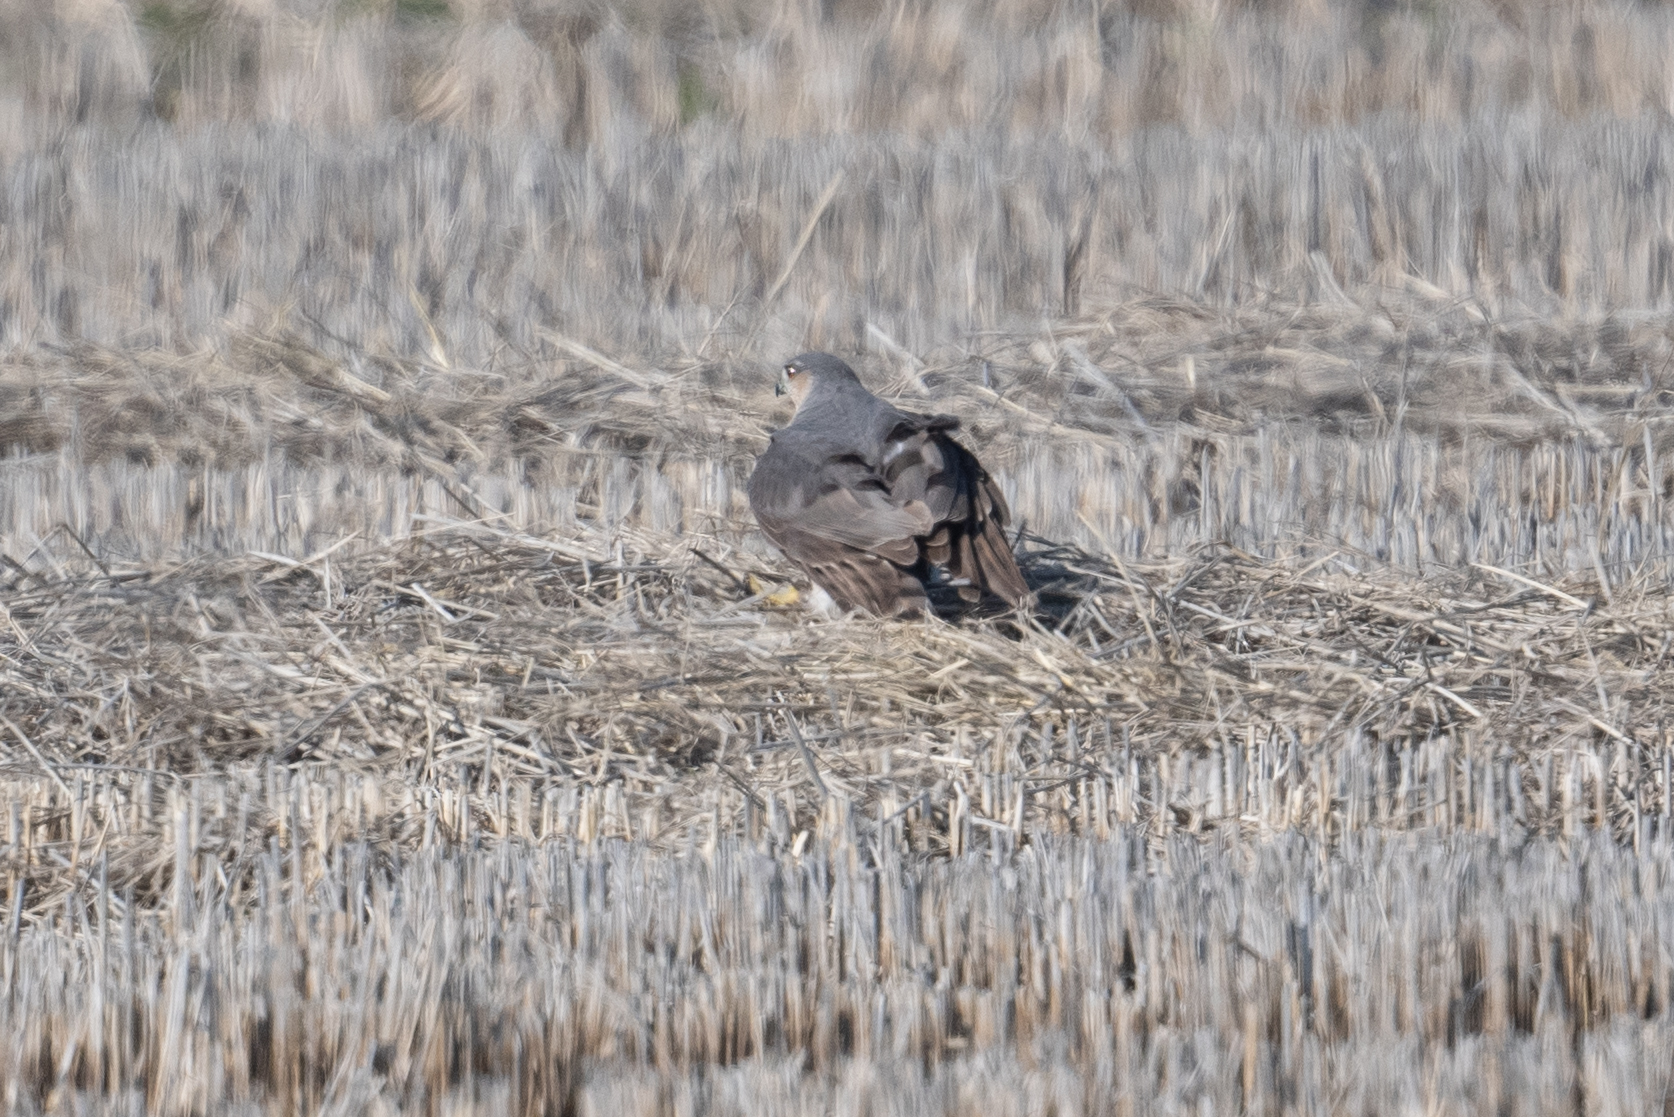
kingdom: Animalia
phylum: Chordata
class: Aves
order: Accipitriformes
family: Accipitridae
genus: Accipiter
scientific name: Accipiter striatus
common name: Sharp-shinned hawk
